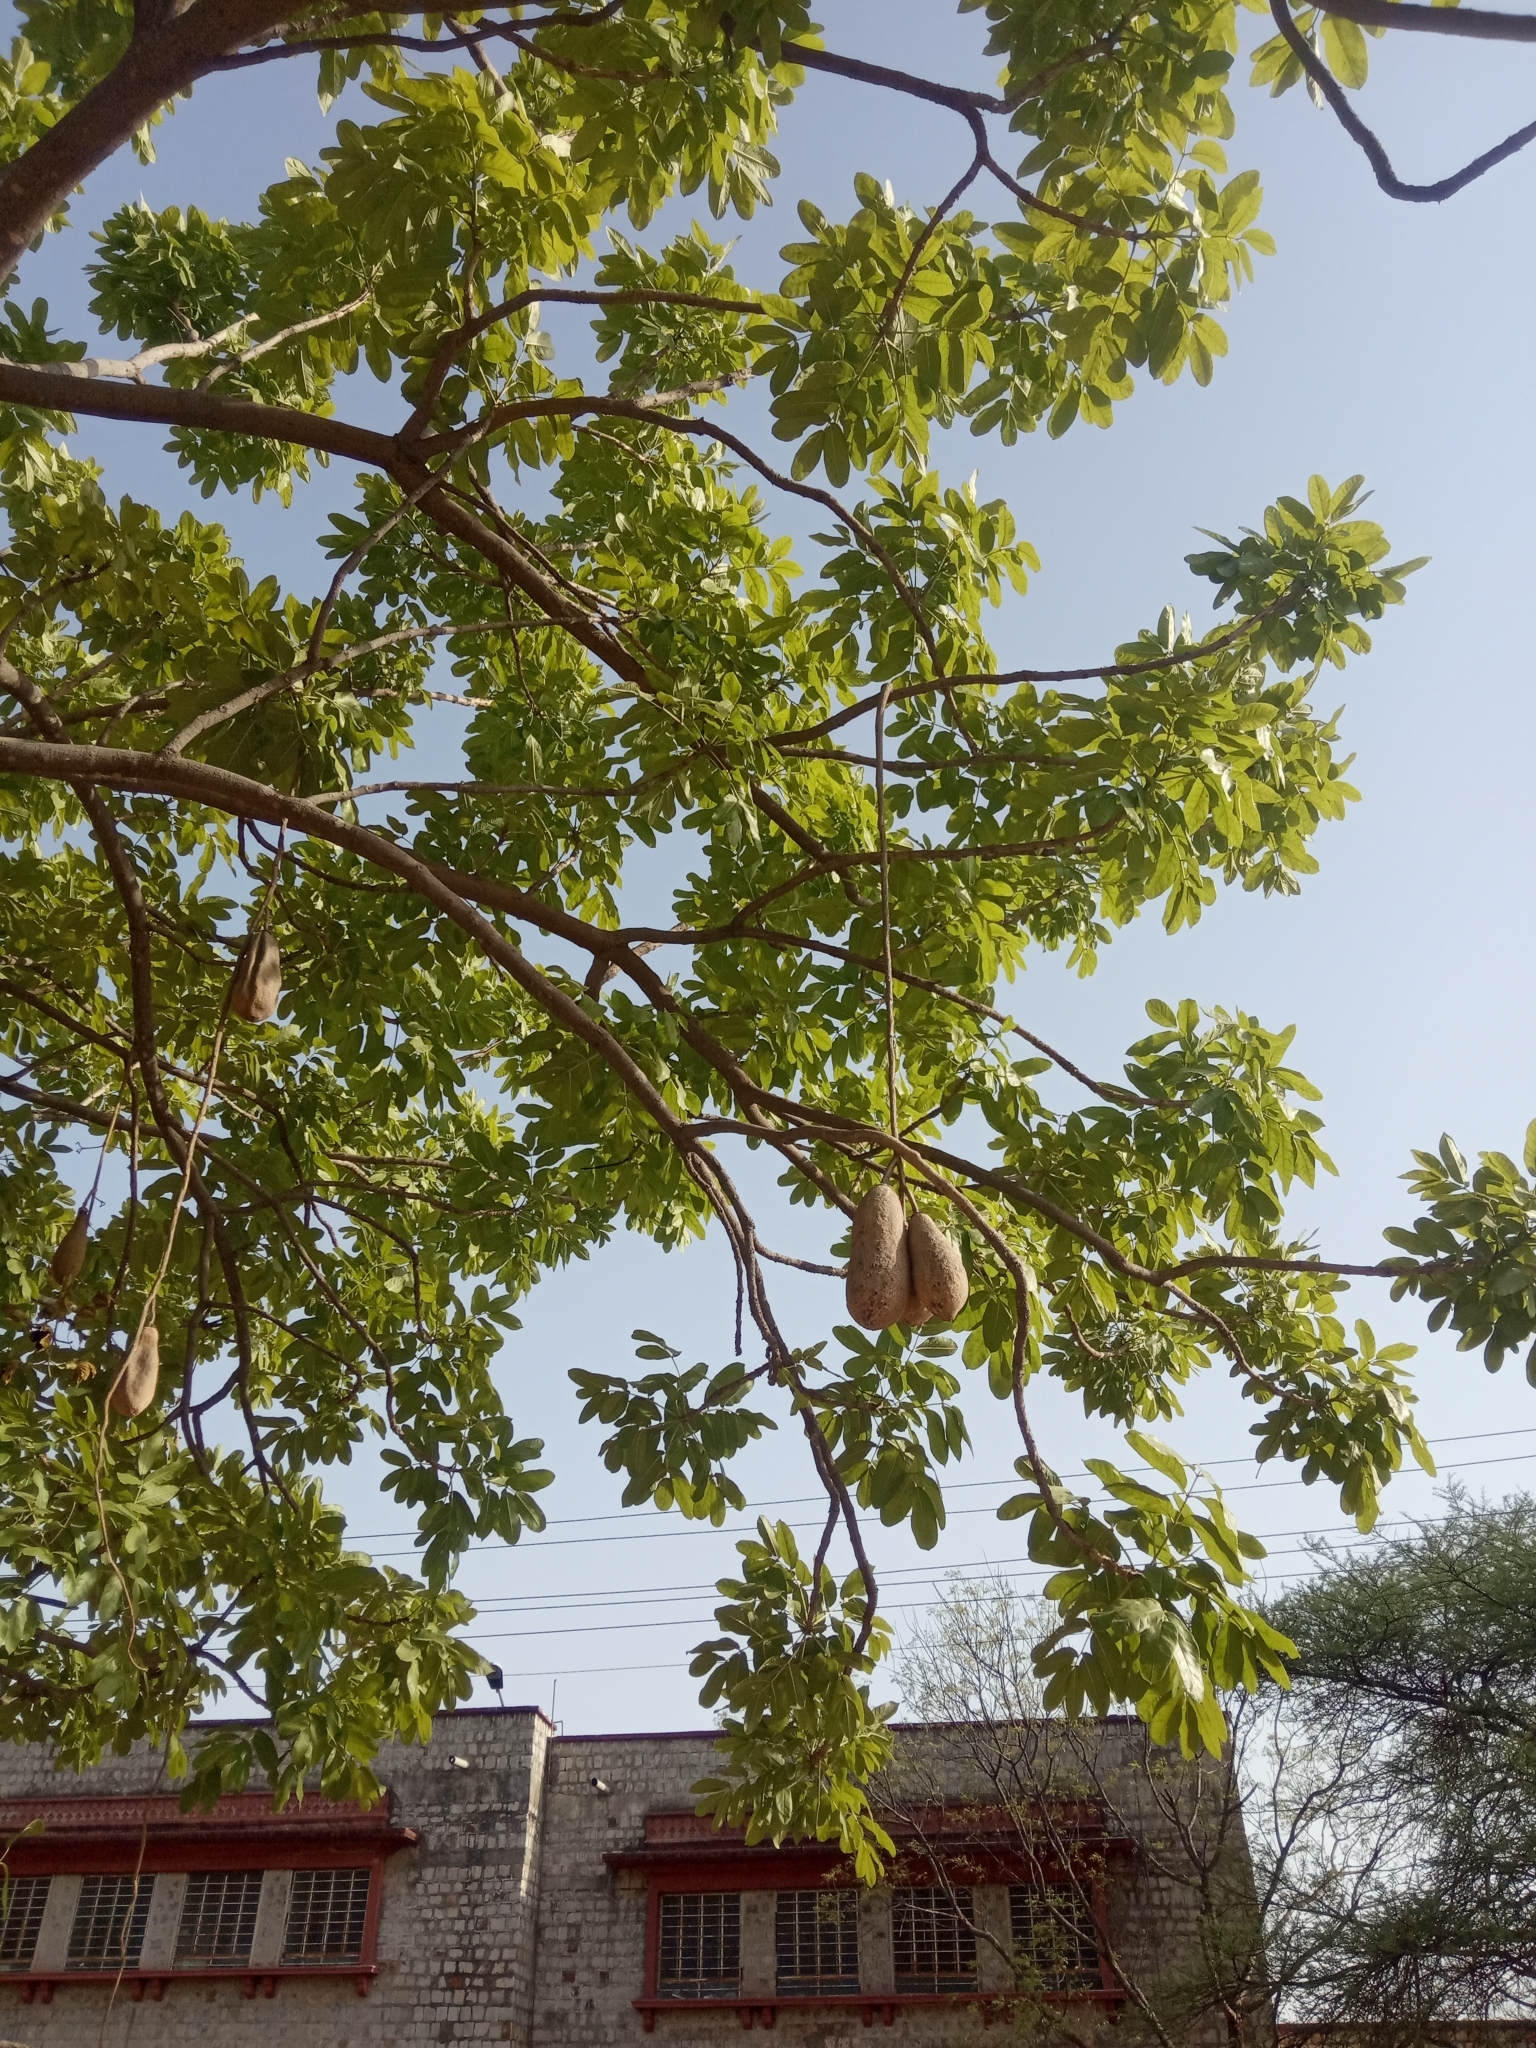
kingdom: Plantae
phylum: Tracheophyta
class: Magnoliopsida
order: Lamiales
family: Bignoniaceae
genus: Kigelia
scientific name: Kigelia africana
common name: Sausage tree
